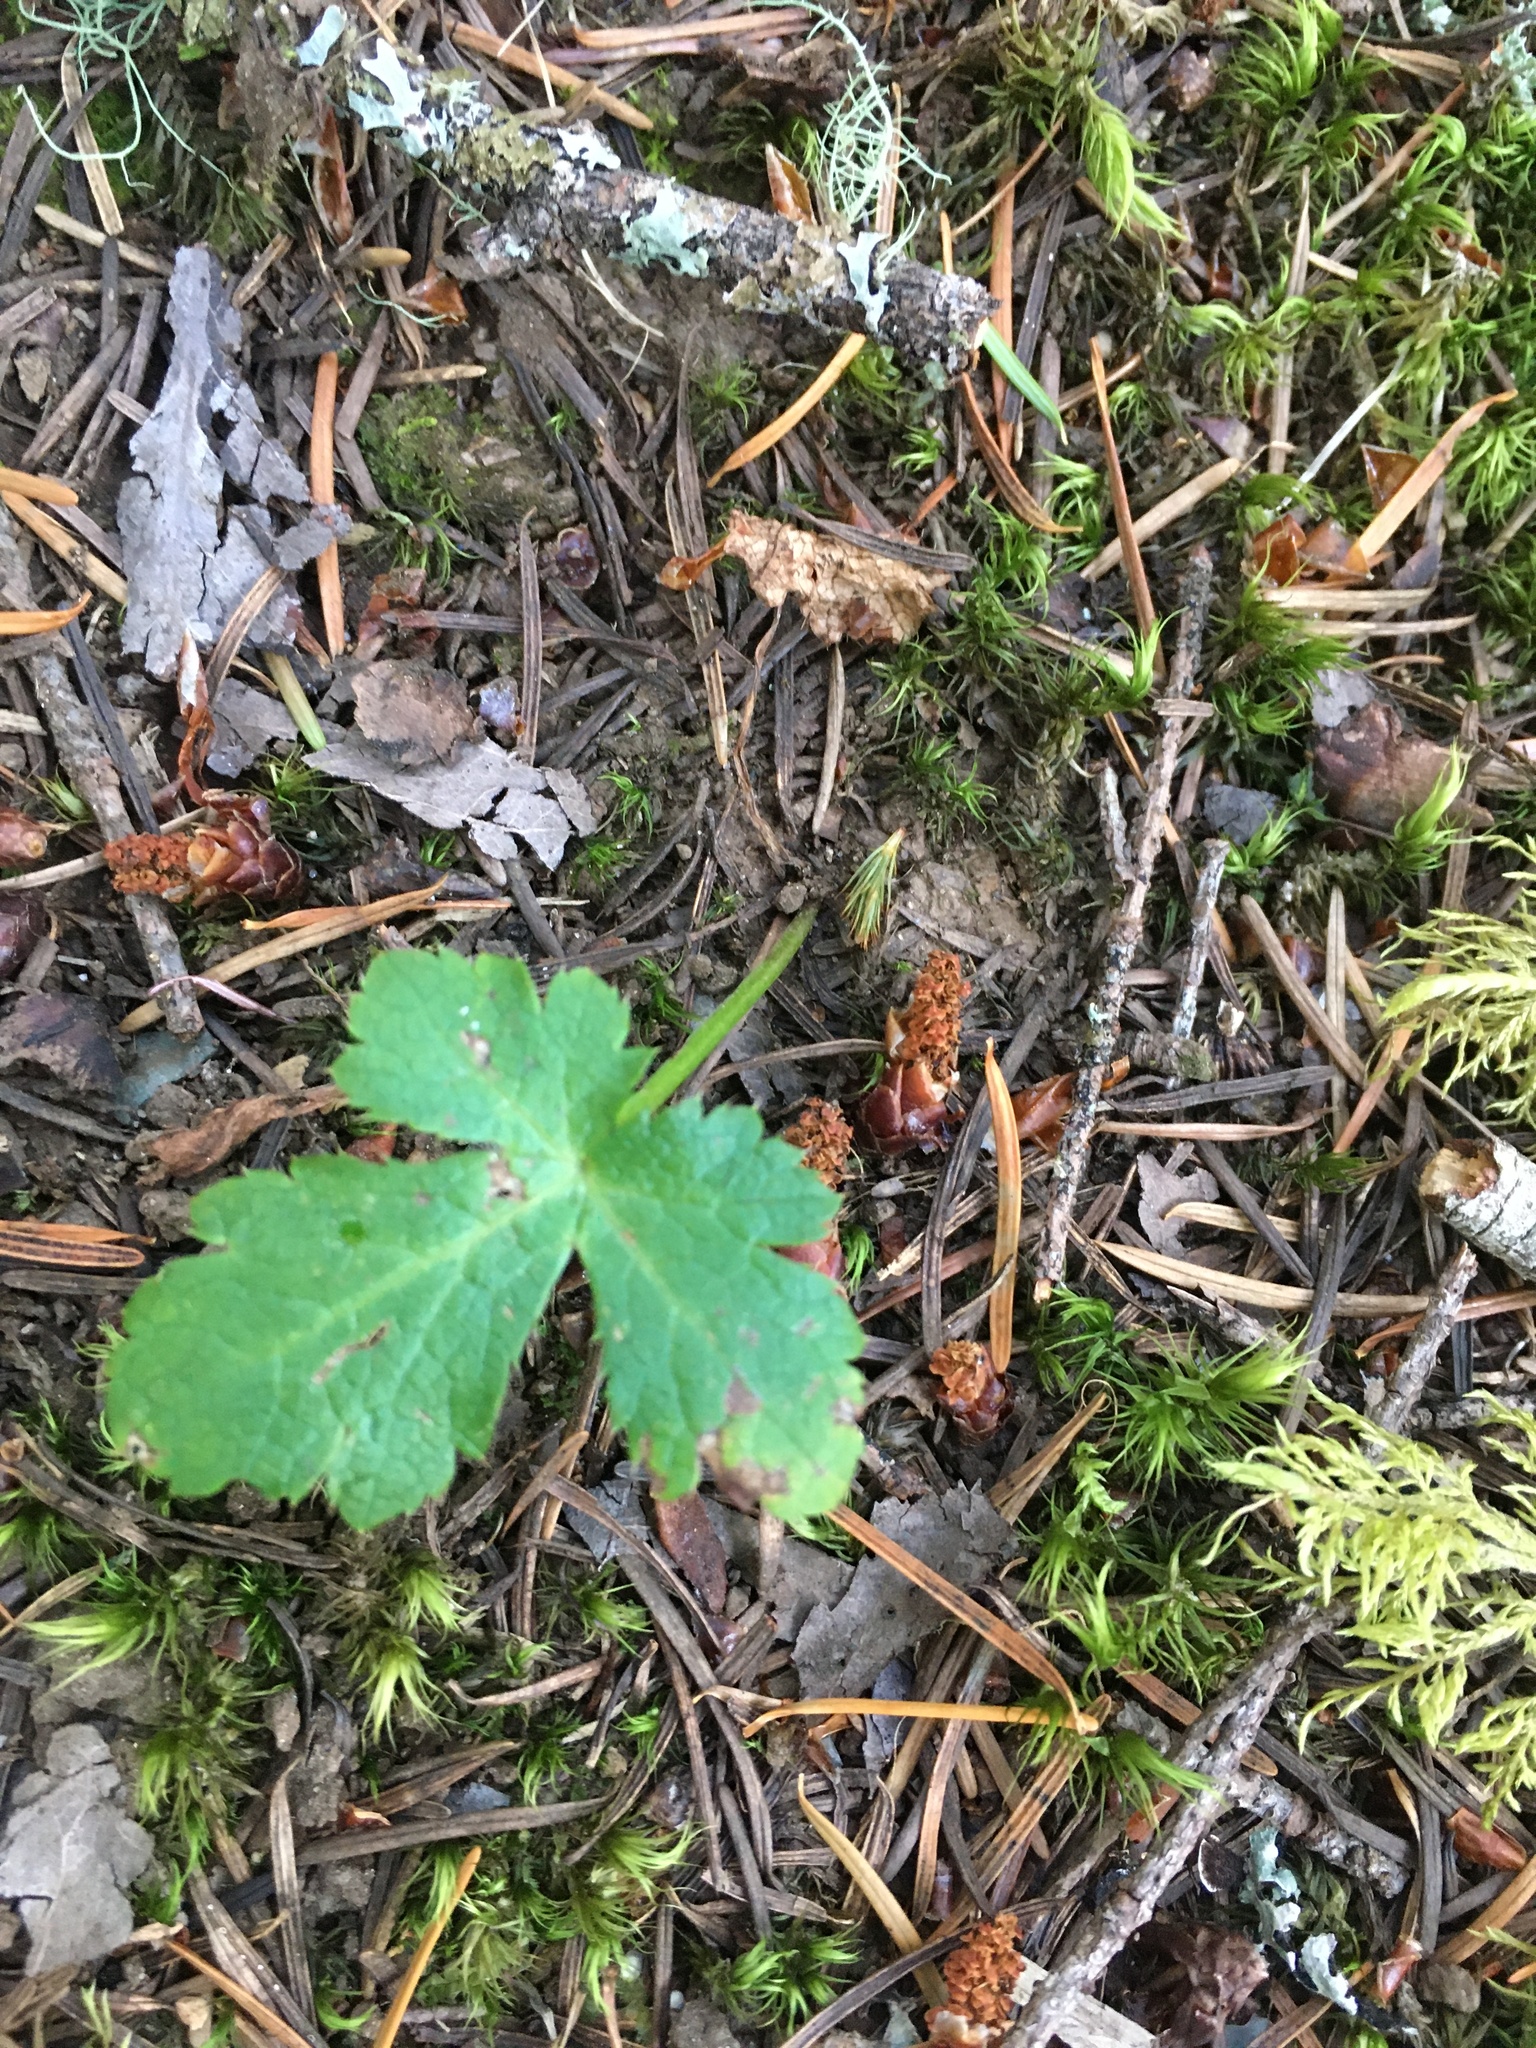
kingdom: Plantae
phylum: Tracheophyta
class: Magnoliopsida
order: Apiales
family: Apiaceae
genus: Sanicula
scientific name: Sanicula crassicaulis
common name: Western snakeroot
